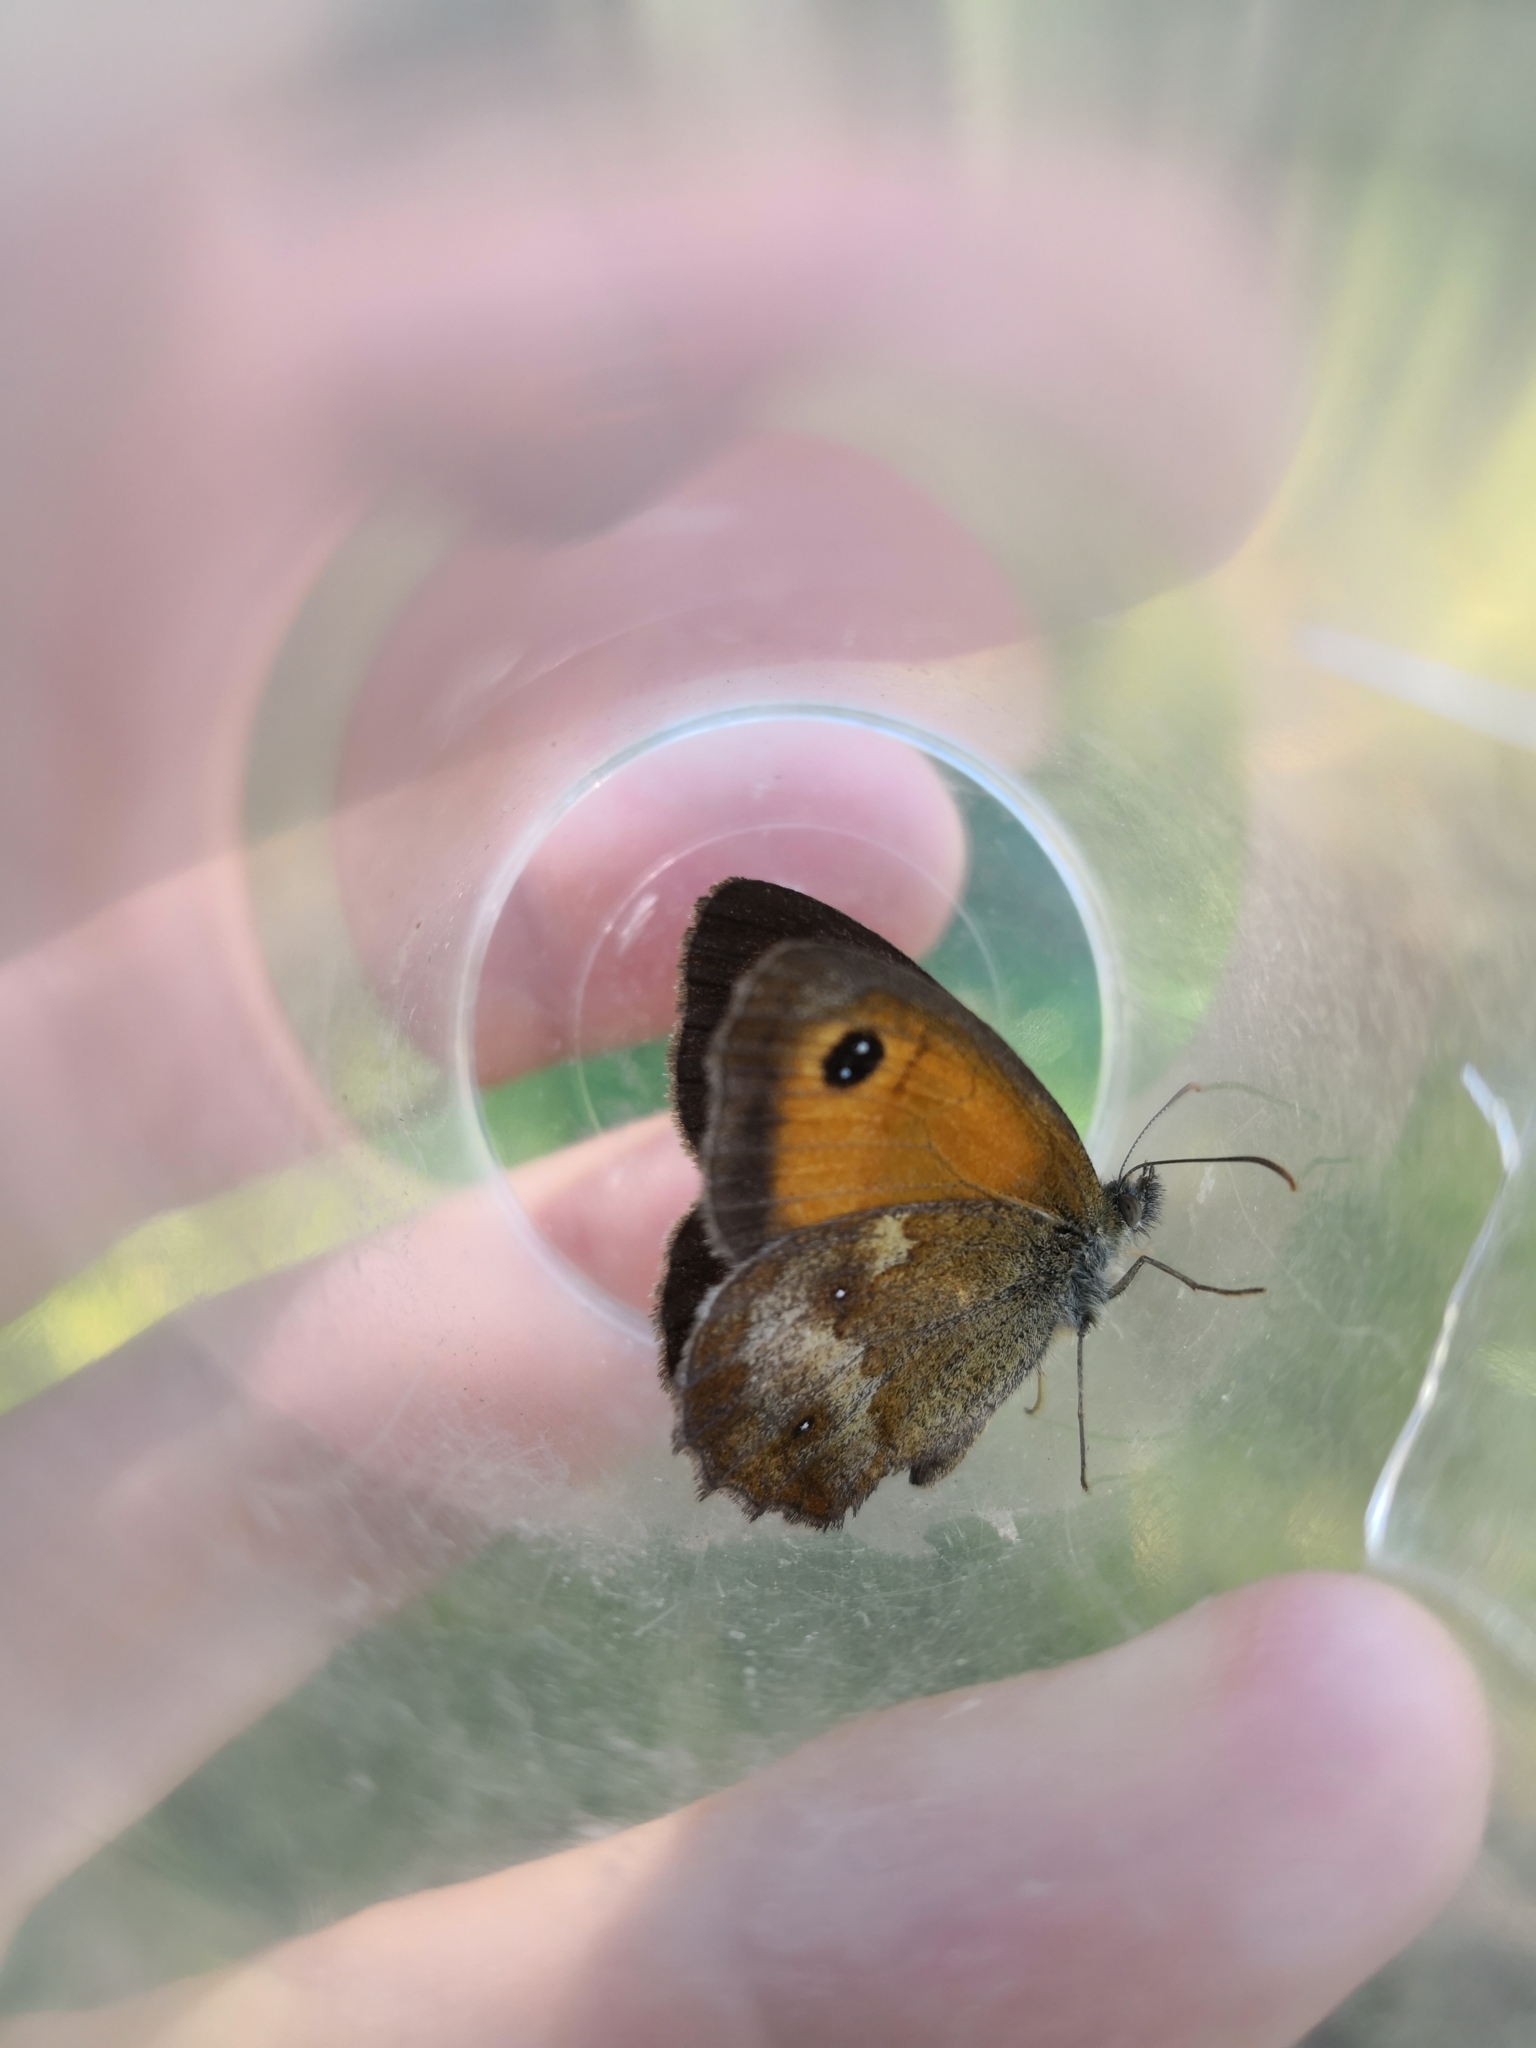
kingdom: Animalia
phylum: Arthropoda
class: Insecta
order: Lepidoptera
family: Nymphalidae
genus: Pyronia
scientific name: Pyronia tithonus
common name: Gatekeeper
